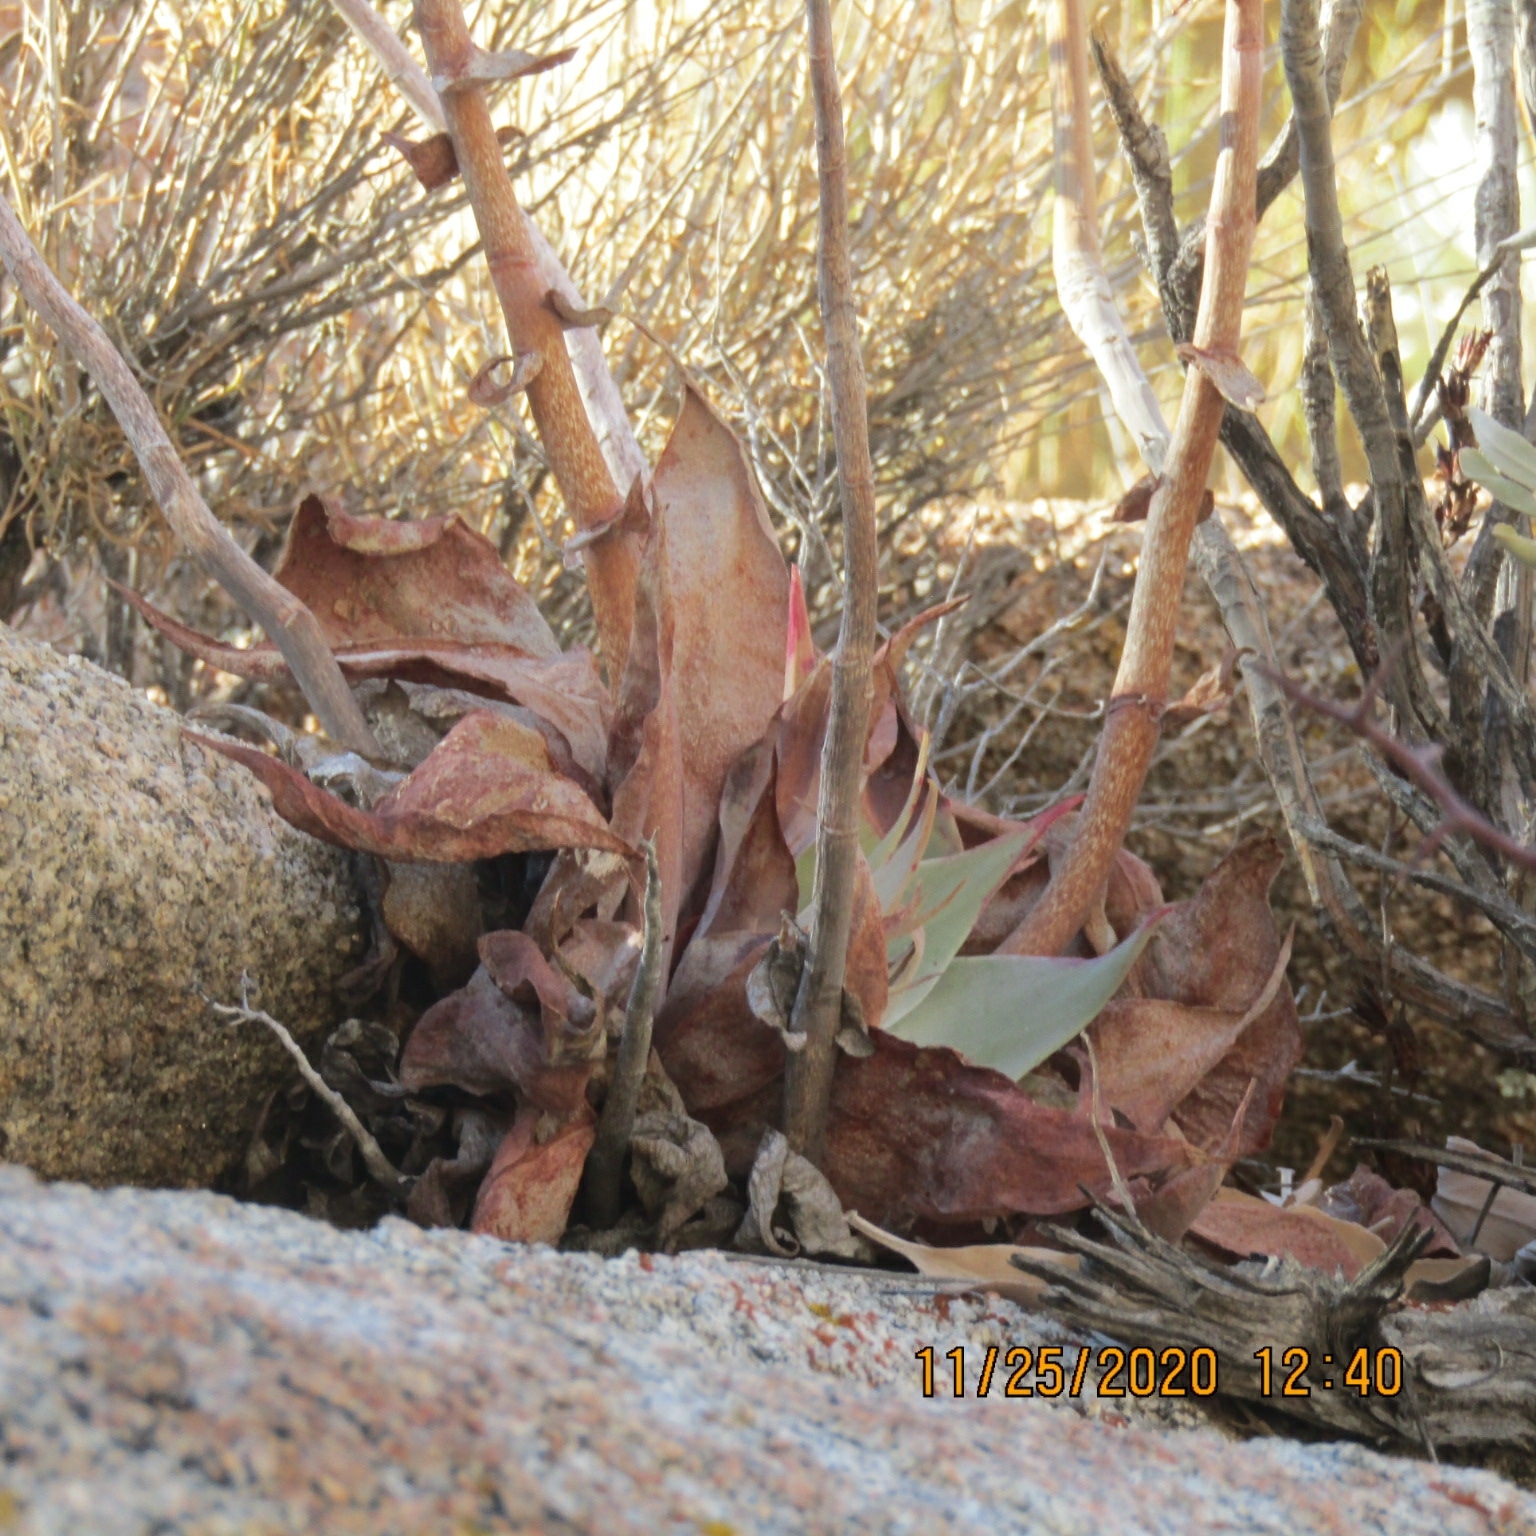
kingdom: Plantae
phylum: Tracheophyta
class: Magnoliopsida
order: Saxifragales
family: Crassulaceae
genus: Dudleya
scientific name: Dudleya arizonica
